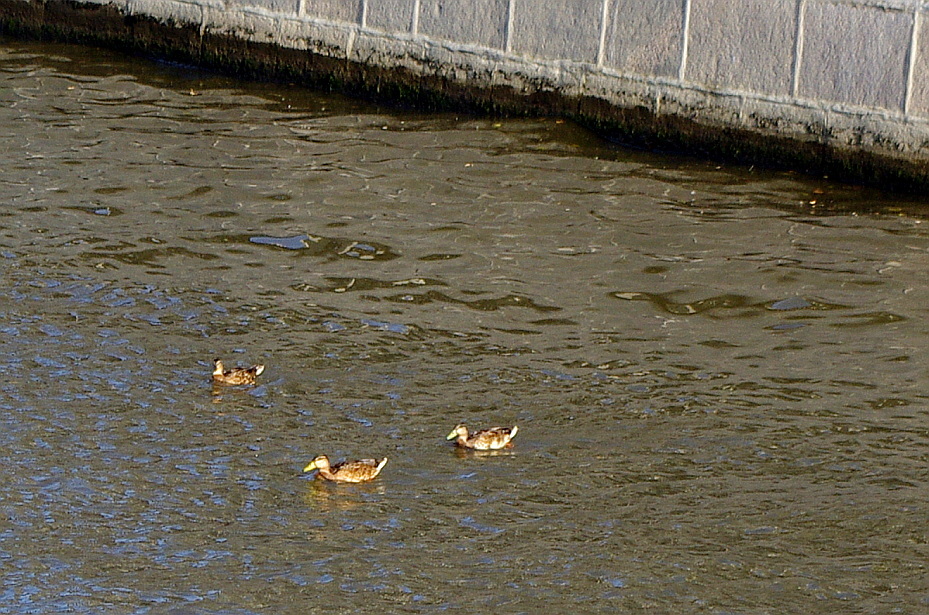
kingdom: Animalia
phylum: Chordata
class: Aves
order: Anseriformes
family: Anatidae
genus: Anas
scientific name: Anas platyrhynchos
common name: Mallard
